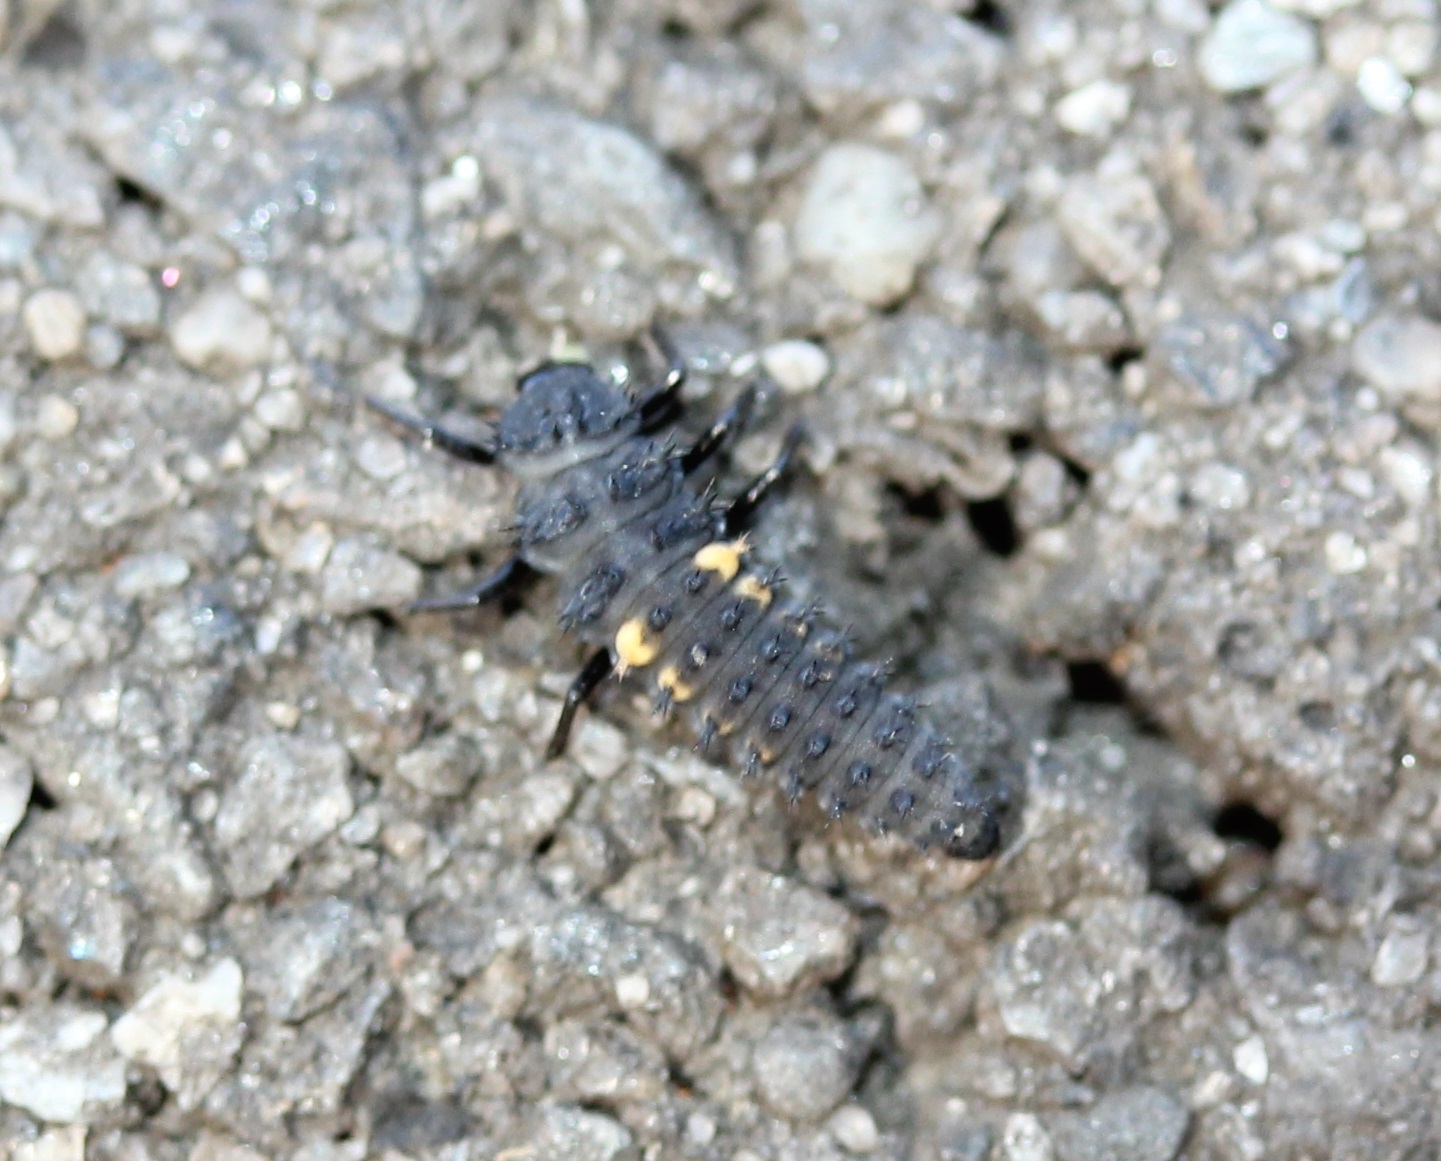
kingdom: Animalia
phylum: Arthropoda
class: Insecta
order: Coleoptera
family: Coccinellidae
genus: Harmonia
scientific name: Harmonia axyridis
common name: Harlequin ladybird
